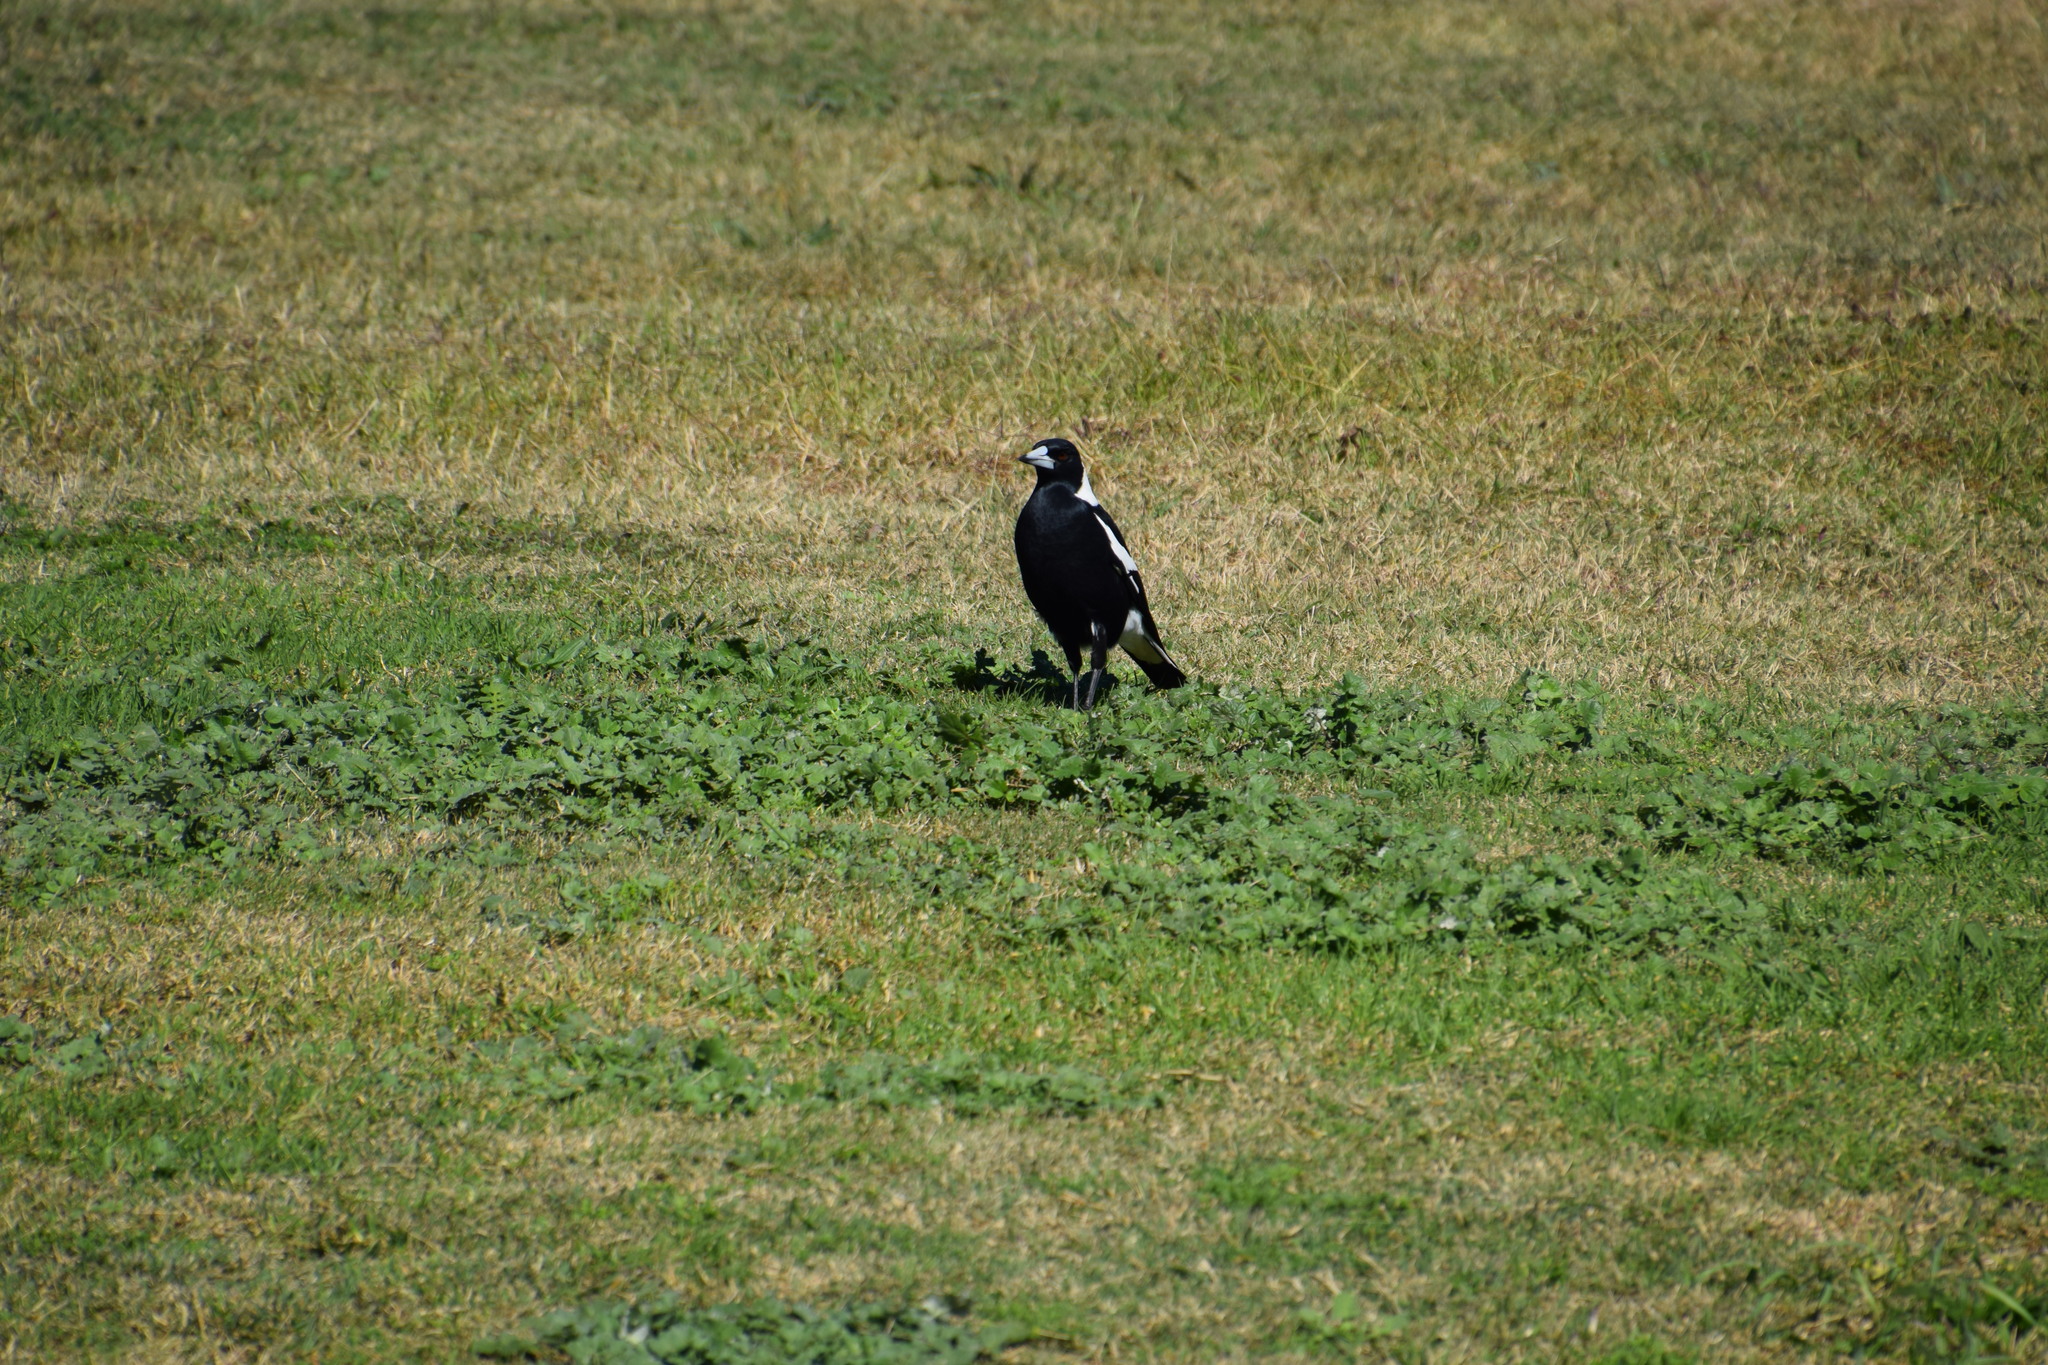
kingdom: Animalia
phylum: Chordata
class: Aves
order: Passeriformes
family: Cracticidae
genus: Gymnorhina
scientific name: Gymnorhina tibicen
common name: Australian magpie
